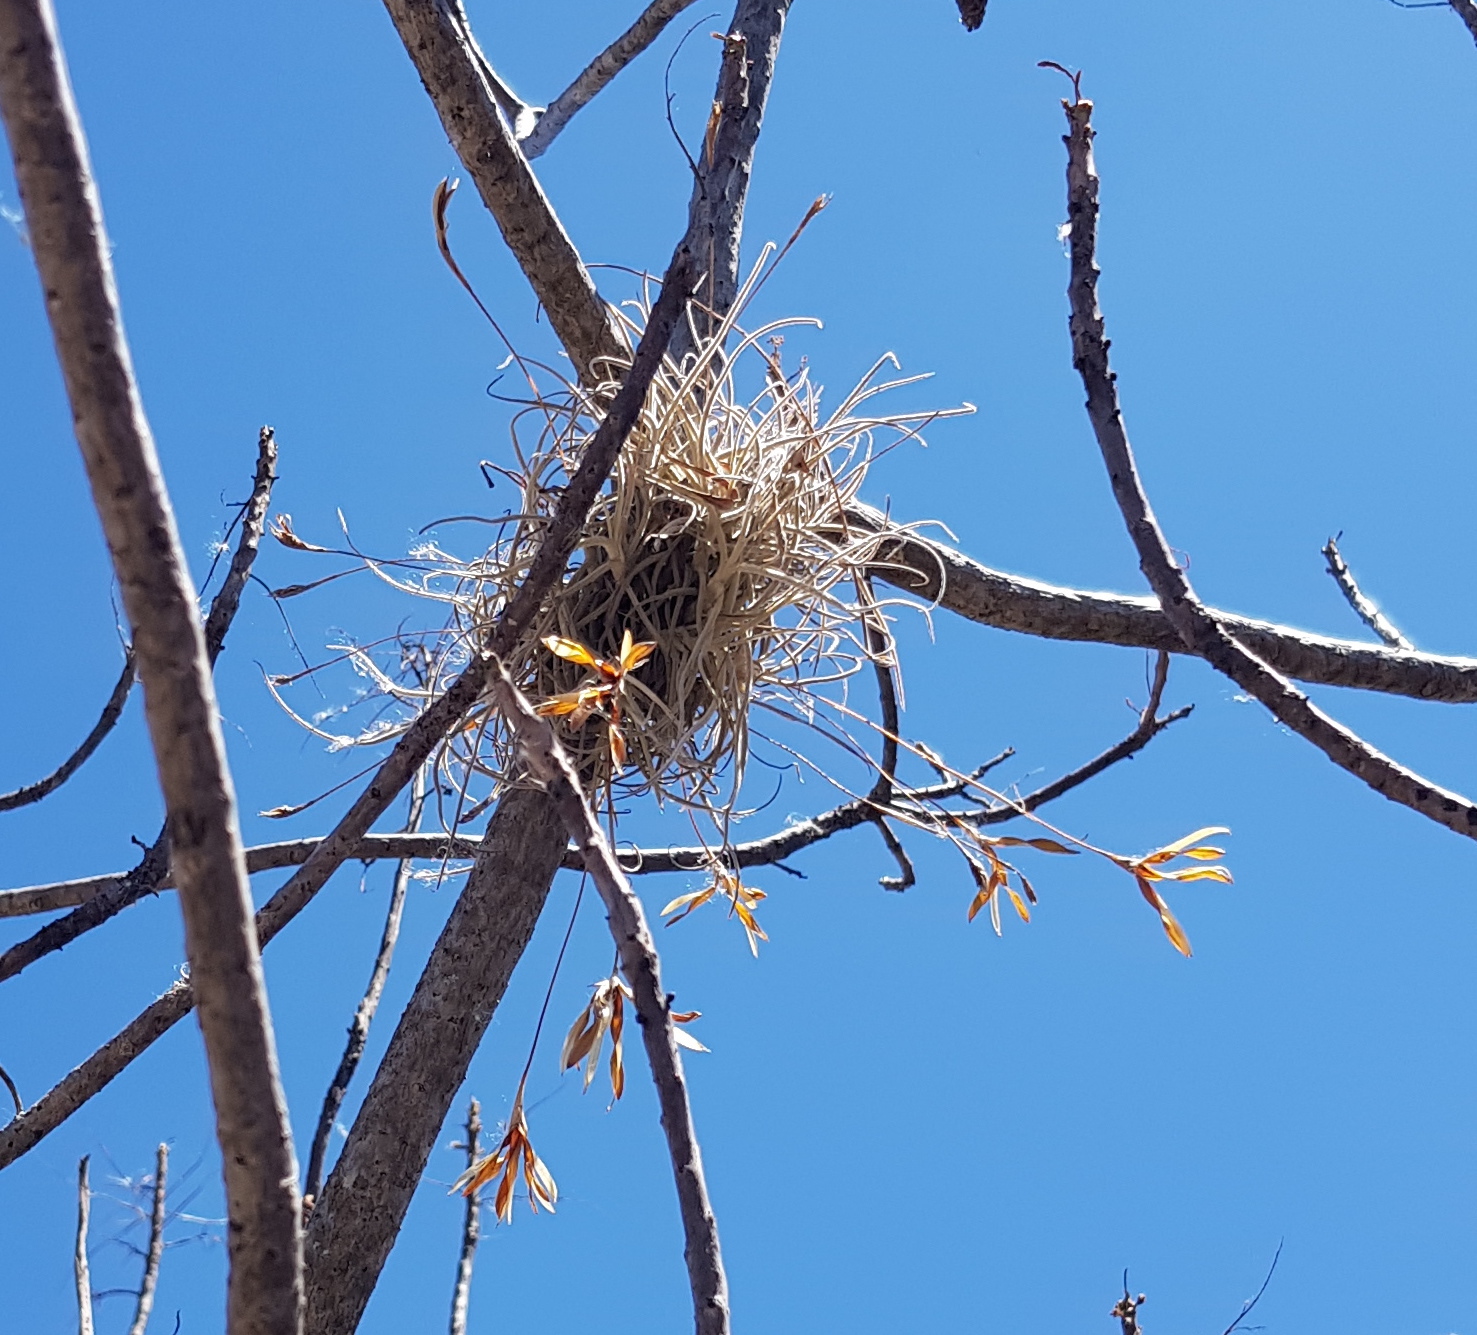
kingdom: Plantae
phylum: Tracheophyta
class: Liliopsida
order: Poales
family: Bromeliaceae
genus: Tillandsia
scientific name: Tillandsia recurvata
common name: Small ballmoss
